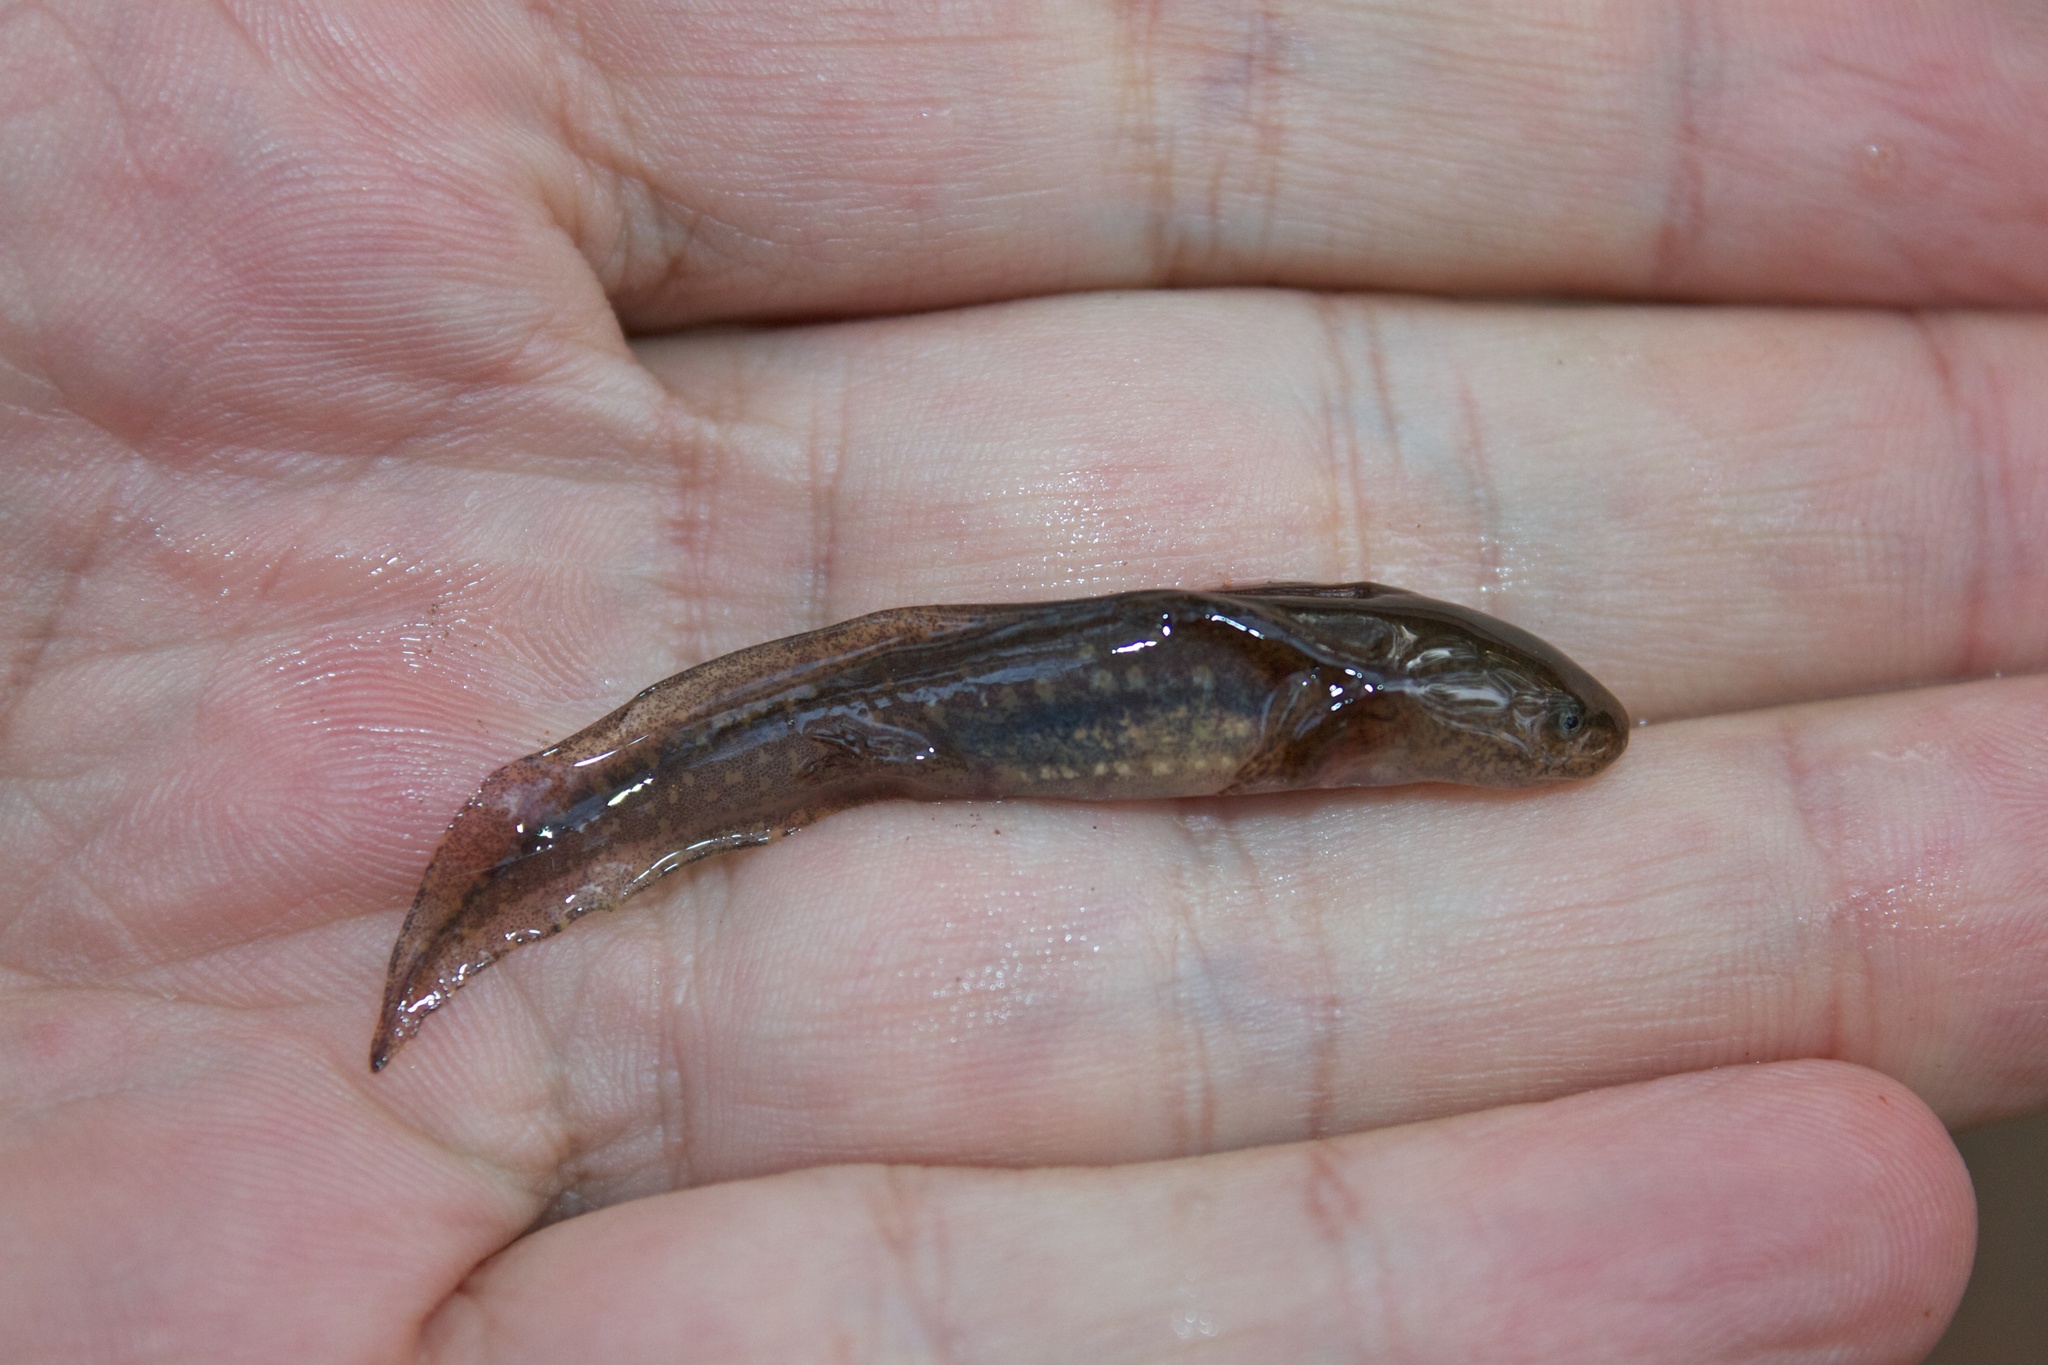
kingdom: Animalia
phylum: Chordata
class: Amphibia
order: Caudata
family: Ambystomatidae
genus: Ambystoma
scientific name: Ambystoma opacum
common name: Marbled salamander
